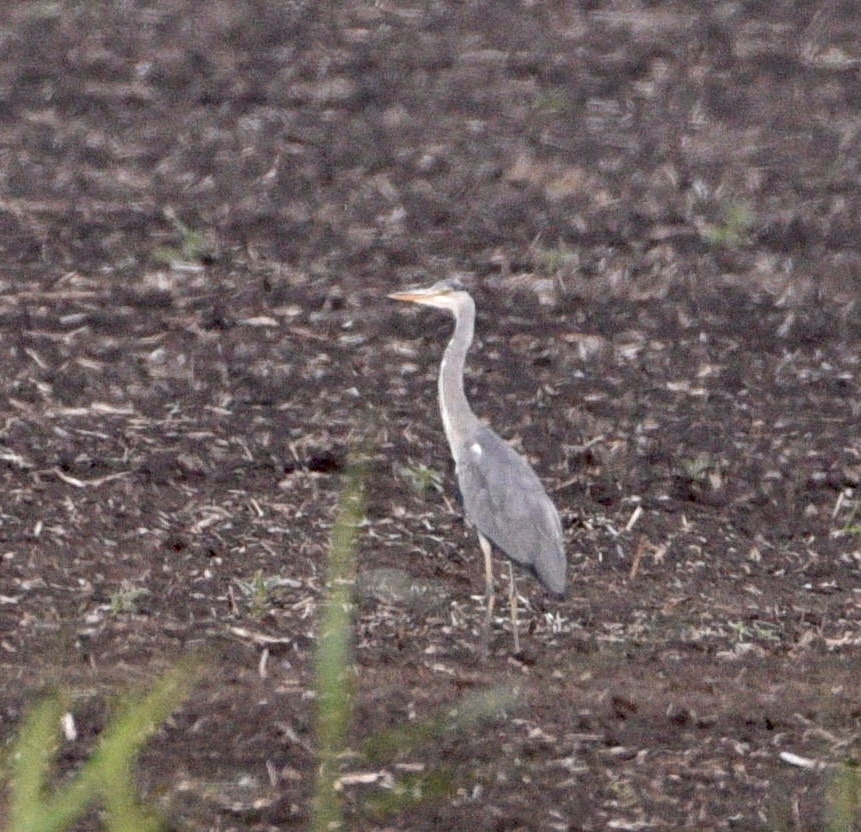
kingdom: Animalia
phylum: Chordata
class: Aves
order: Pelecaniformes
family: Ardeidae
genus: Ardea
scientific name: Ardea cinerea
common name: Grey heron
